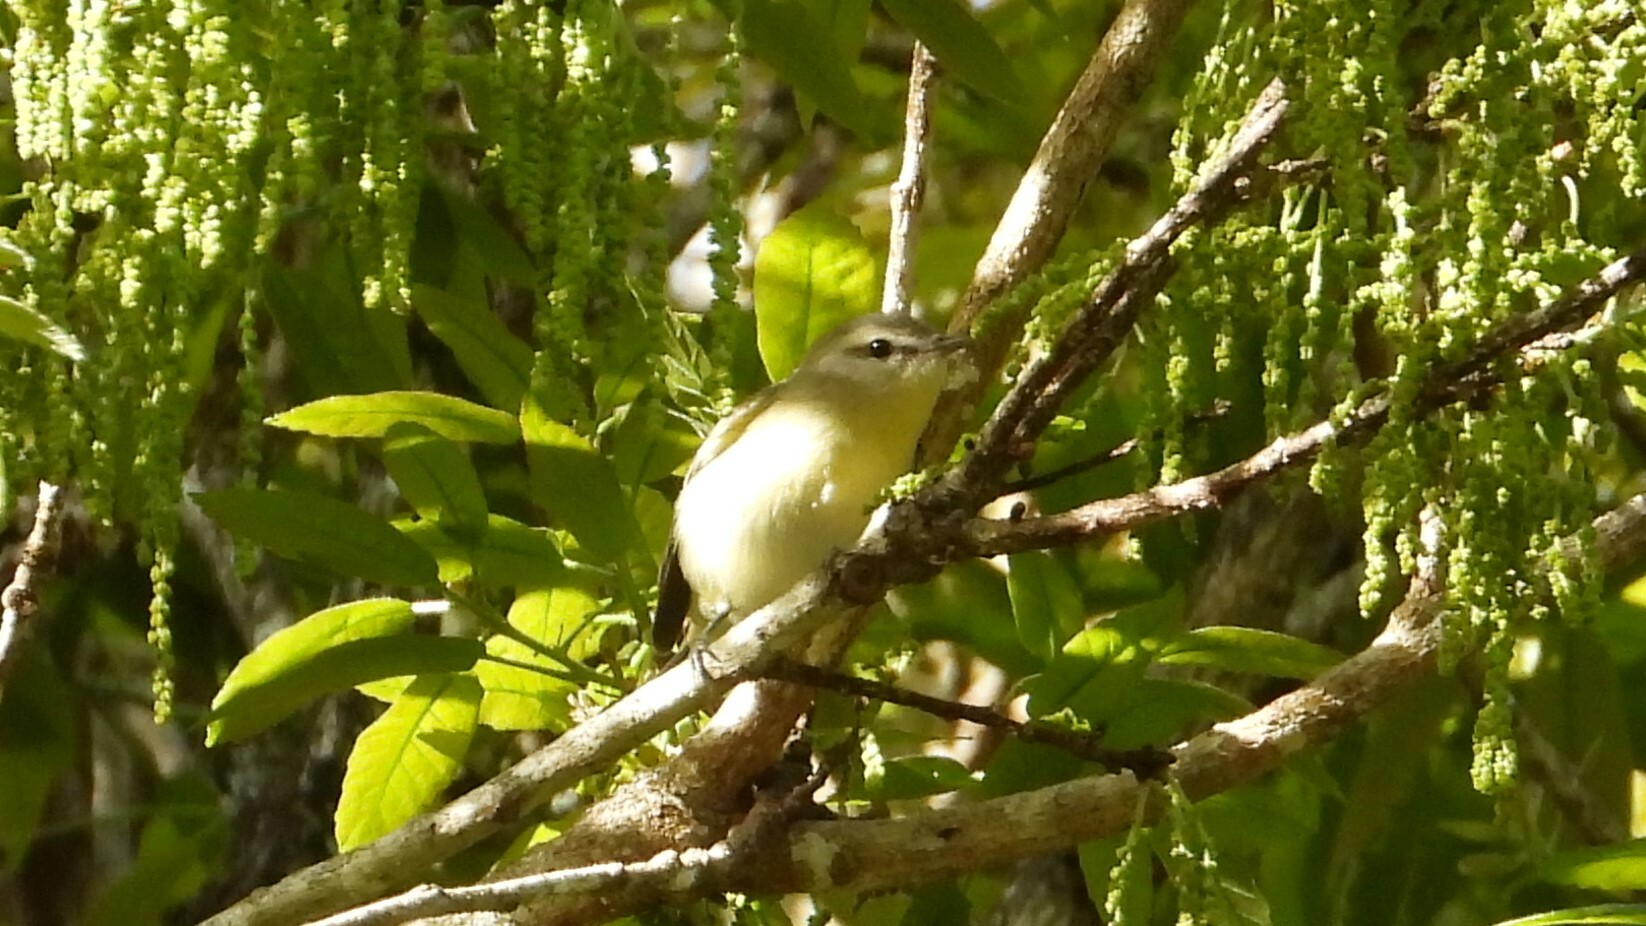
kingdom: Animalia
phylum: Chordata
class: Aves
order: Passeriformes
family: Vireonidae
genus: Vireo
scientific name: Vireo philadelphicus
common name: Philadelphia vireo
